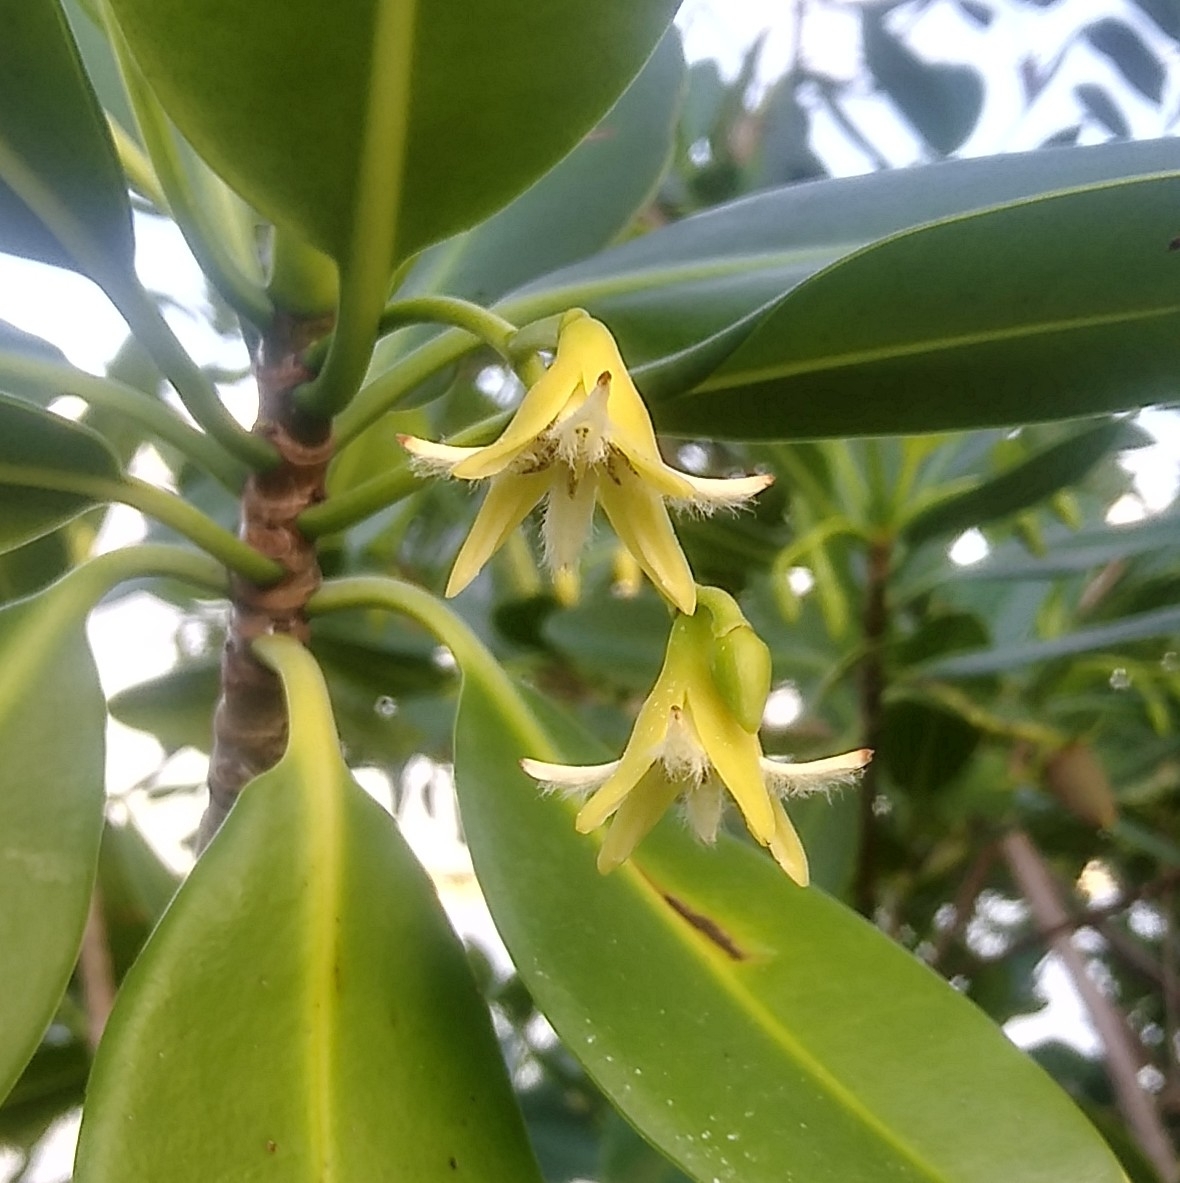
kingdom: Plantae
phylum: Tracheophyta
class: Magnoliopsida
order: Malpighiales
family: Rhizophoraceae
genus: Rhizophora
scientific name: Rhizophora mangle
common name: Red mangrove
